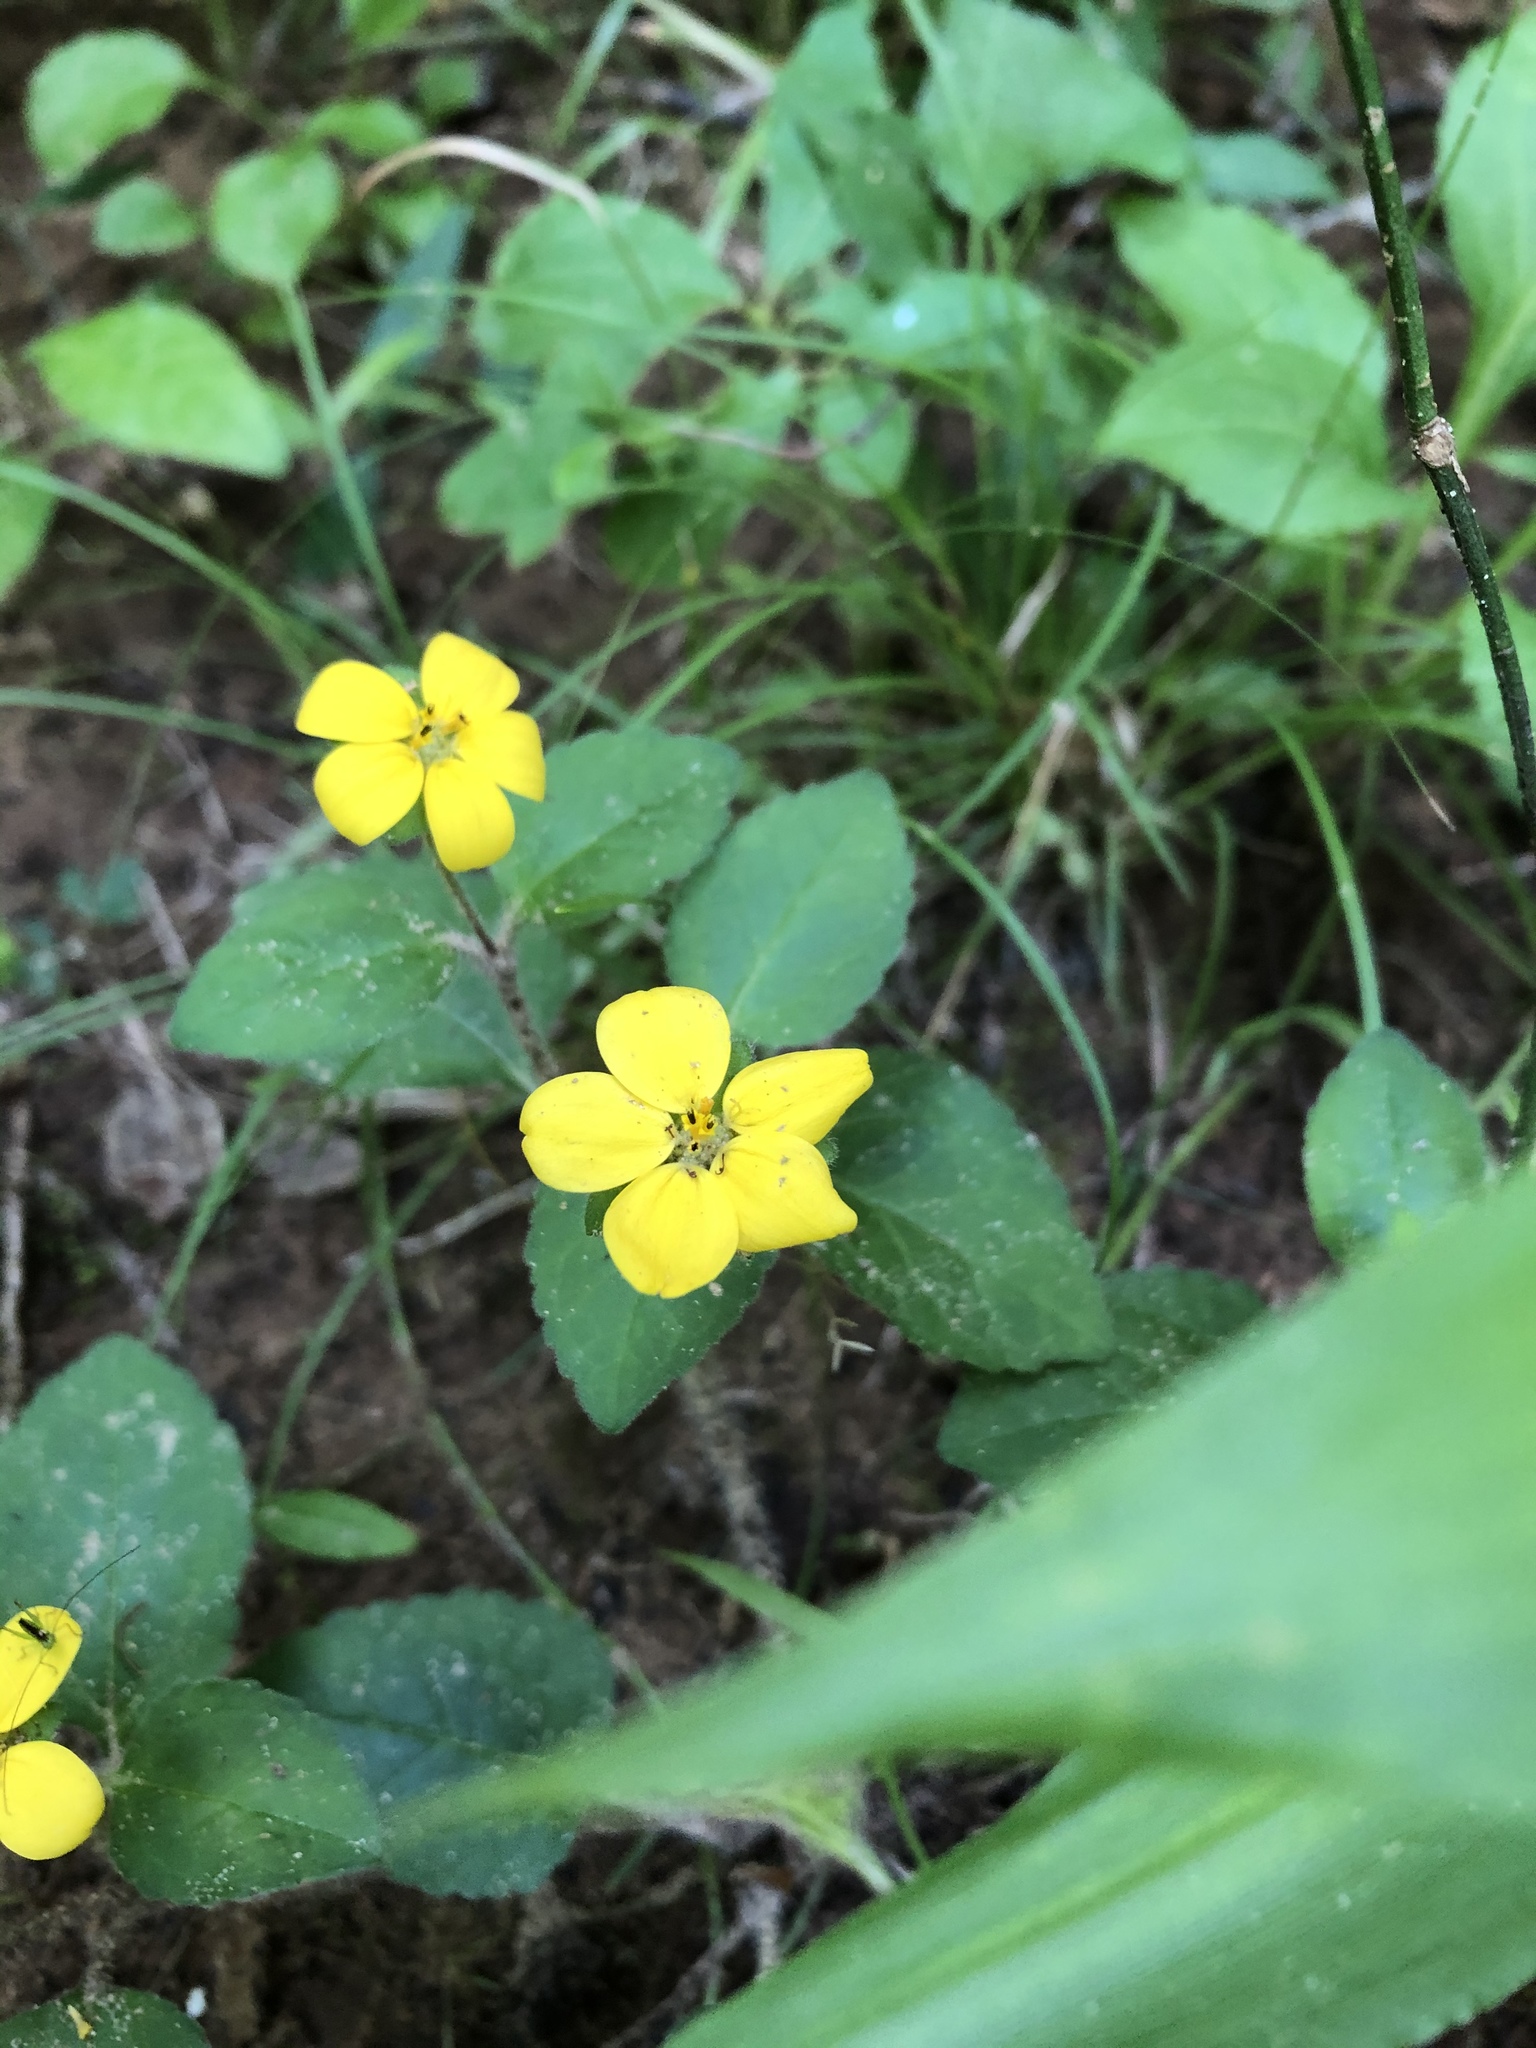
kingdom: Plantae
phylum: Tracheophyta
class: Magnoliopsida
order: Asterales
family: Asteraceae
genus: Chrysogonum
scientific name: Chrysogonum virginianum
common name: Golden-knee
